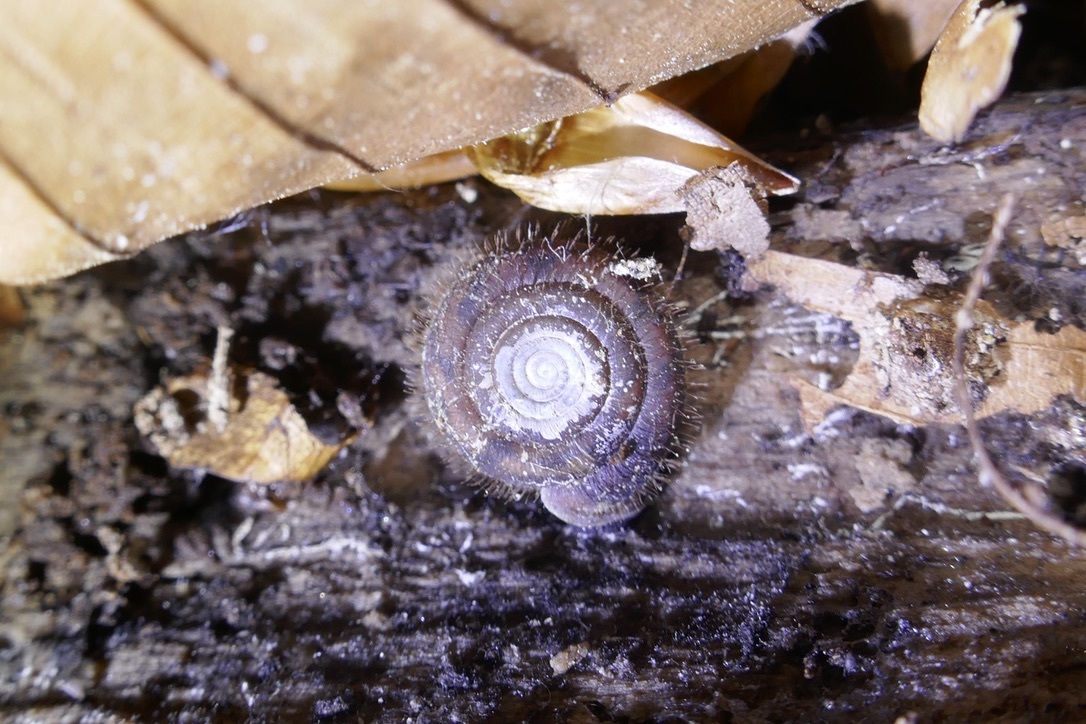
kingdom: Animalia
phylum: Mollusca
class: Gastropoda
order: Stylommatophora
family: Helicodontidae
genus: Helicodonta
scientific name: Helicodonta obvoluta
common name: Cheese snail
